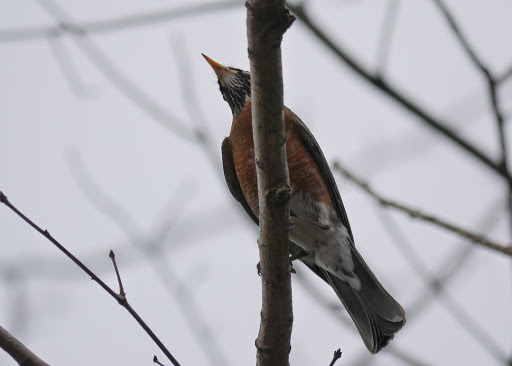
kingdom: Animalia
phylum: Chordata
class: Aves
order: Passeriformes
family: Turdidae
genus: Turdus
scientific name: Turdus migratorius
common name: American robin
